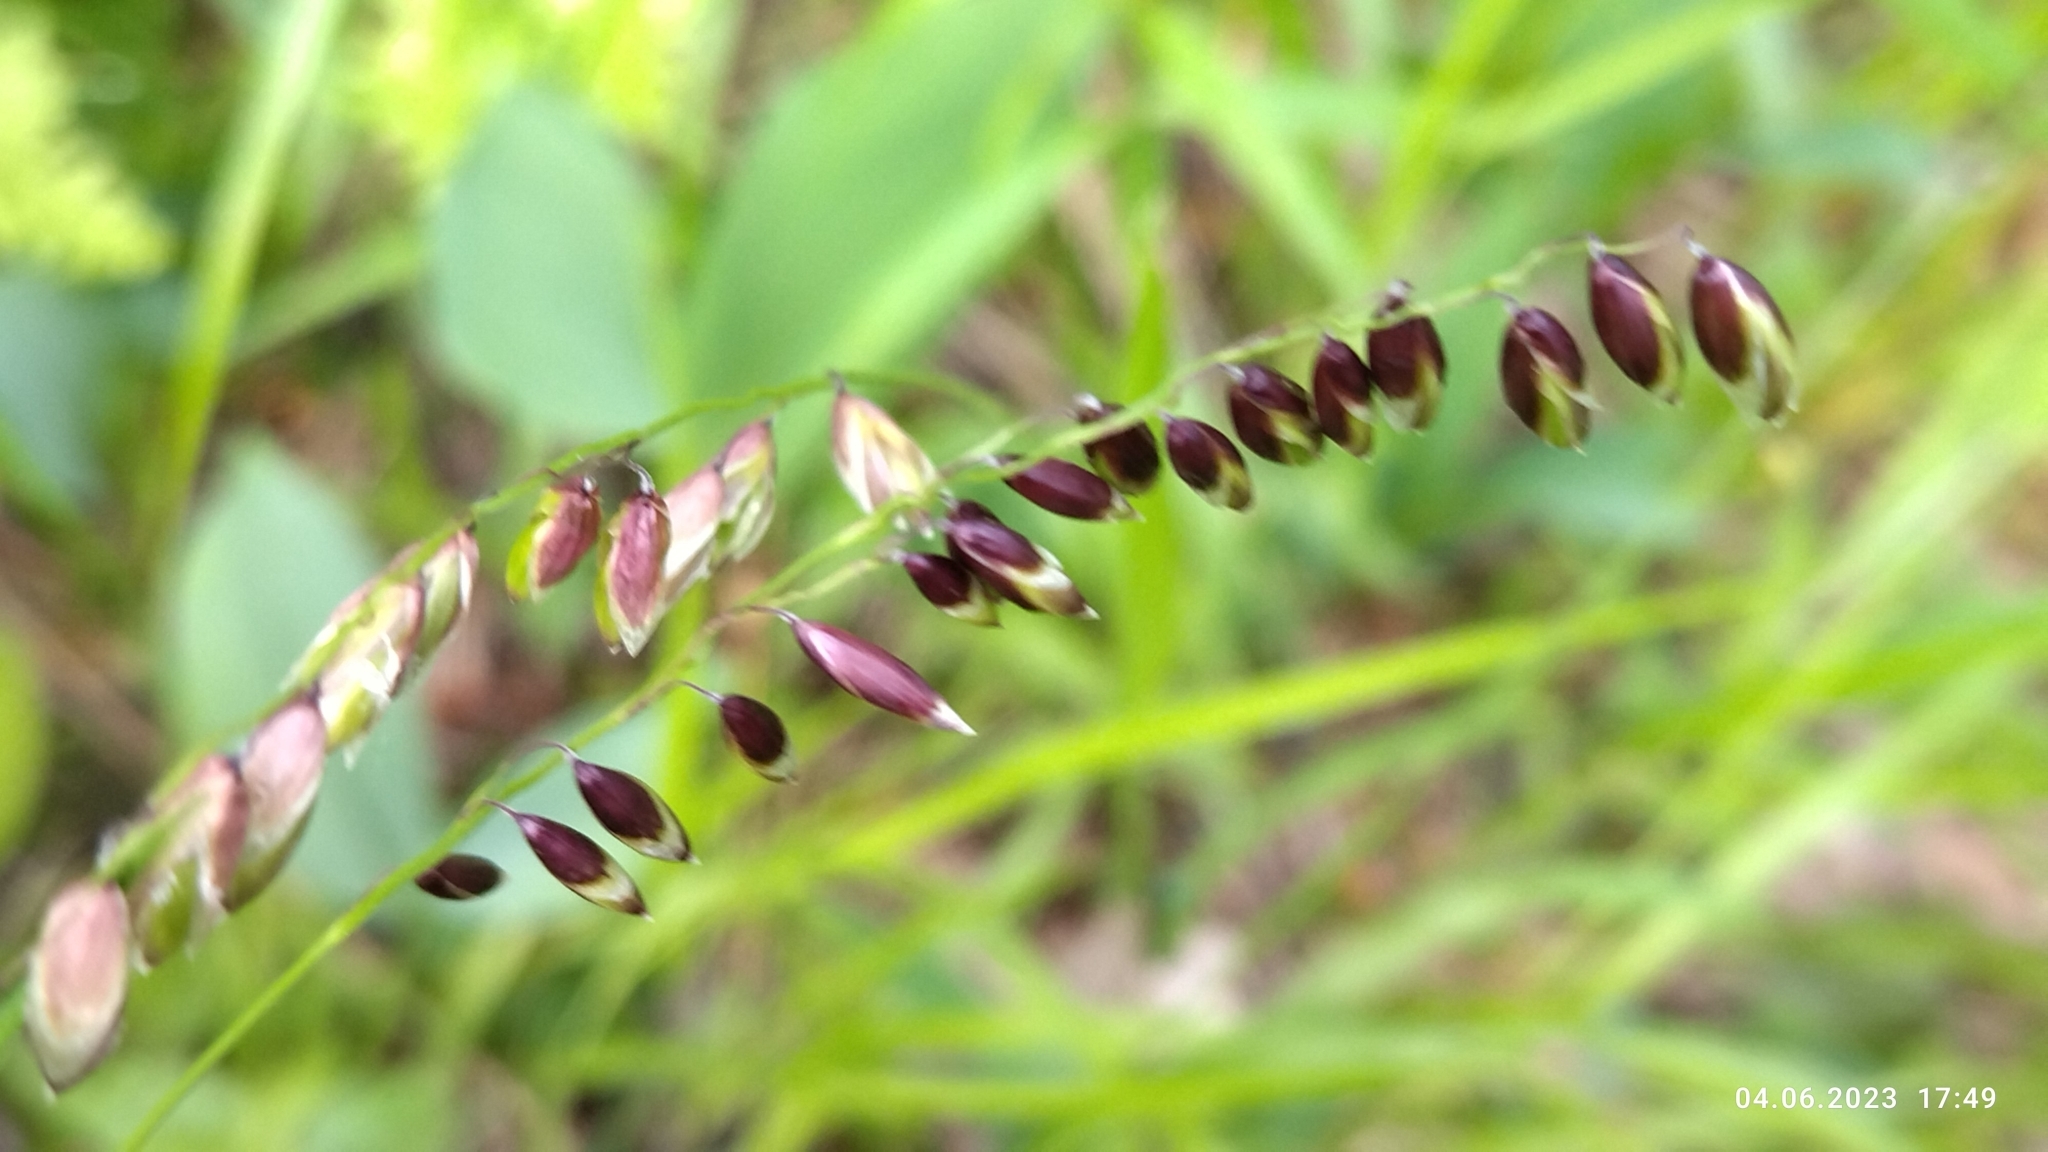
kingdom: Plantae
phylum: Tracheophyta
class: Liliopsida
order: Poales
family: Poaceae
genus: Melica
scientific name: Melica nutans
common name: Mountain melick
